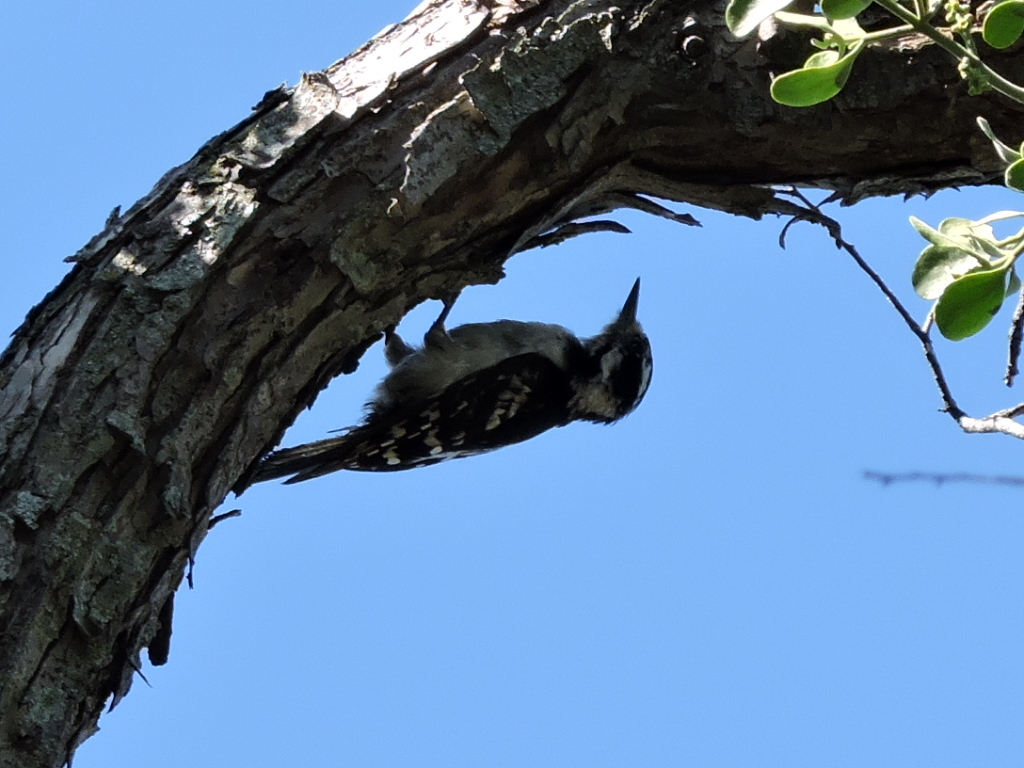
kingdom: Animalia
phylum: Chordata
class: Aves
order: Piciformes
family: Picidae
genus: Dryobates
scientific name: Dryobates pubescens
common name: Downy woodpecker
